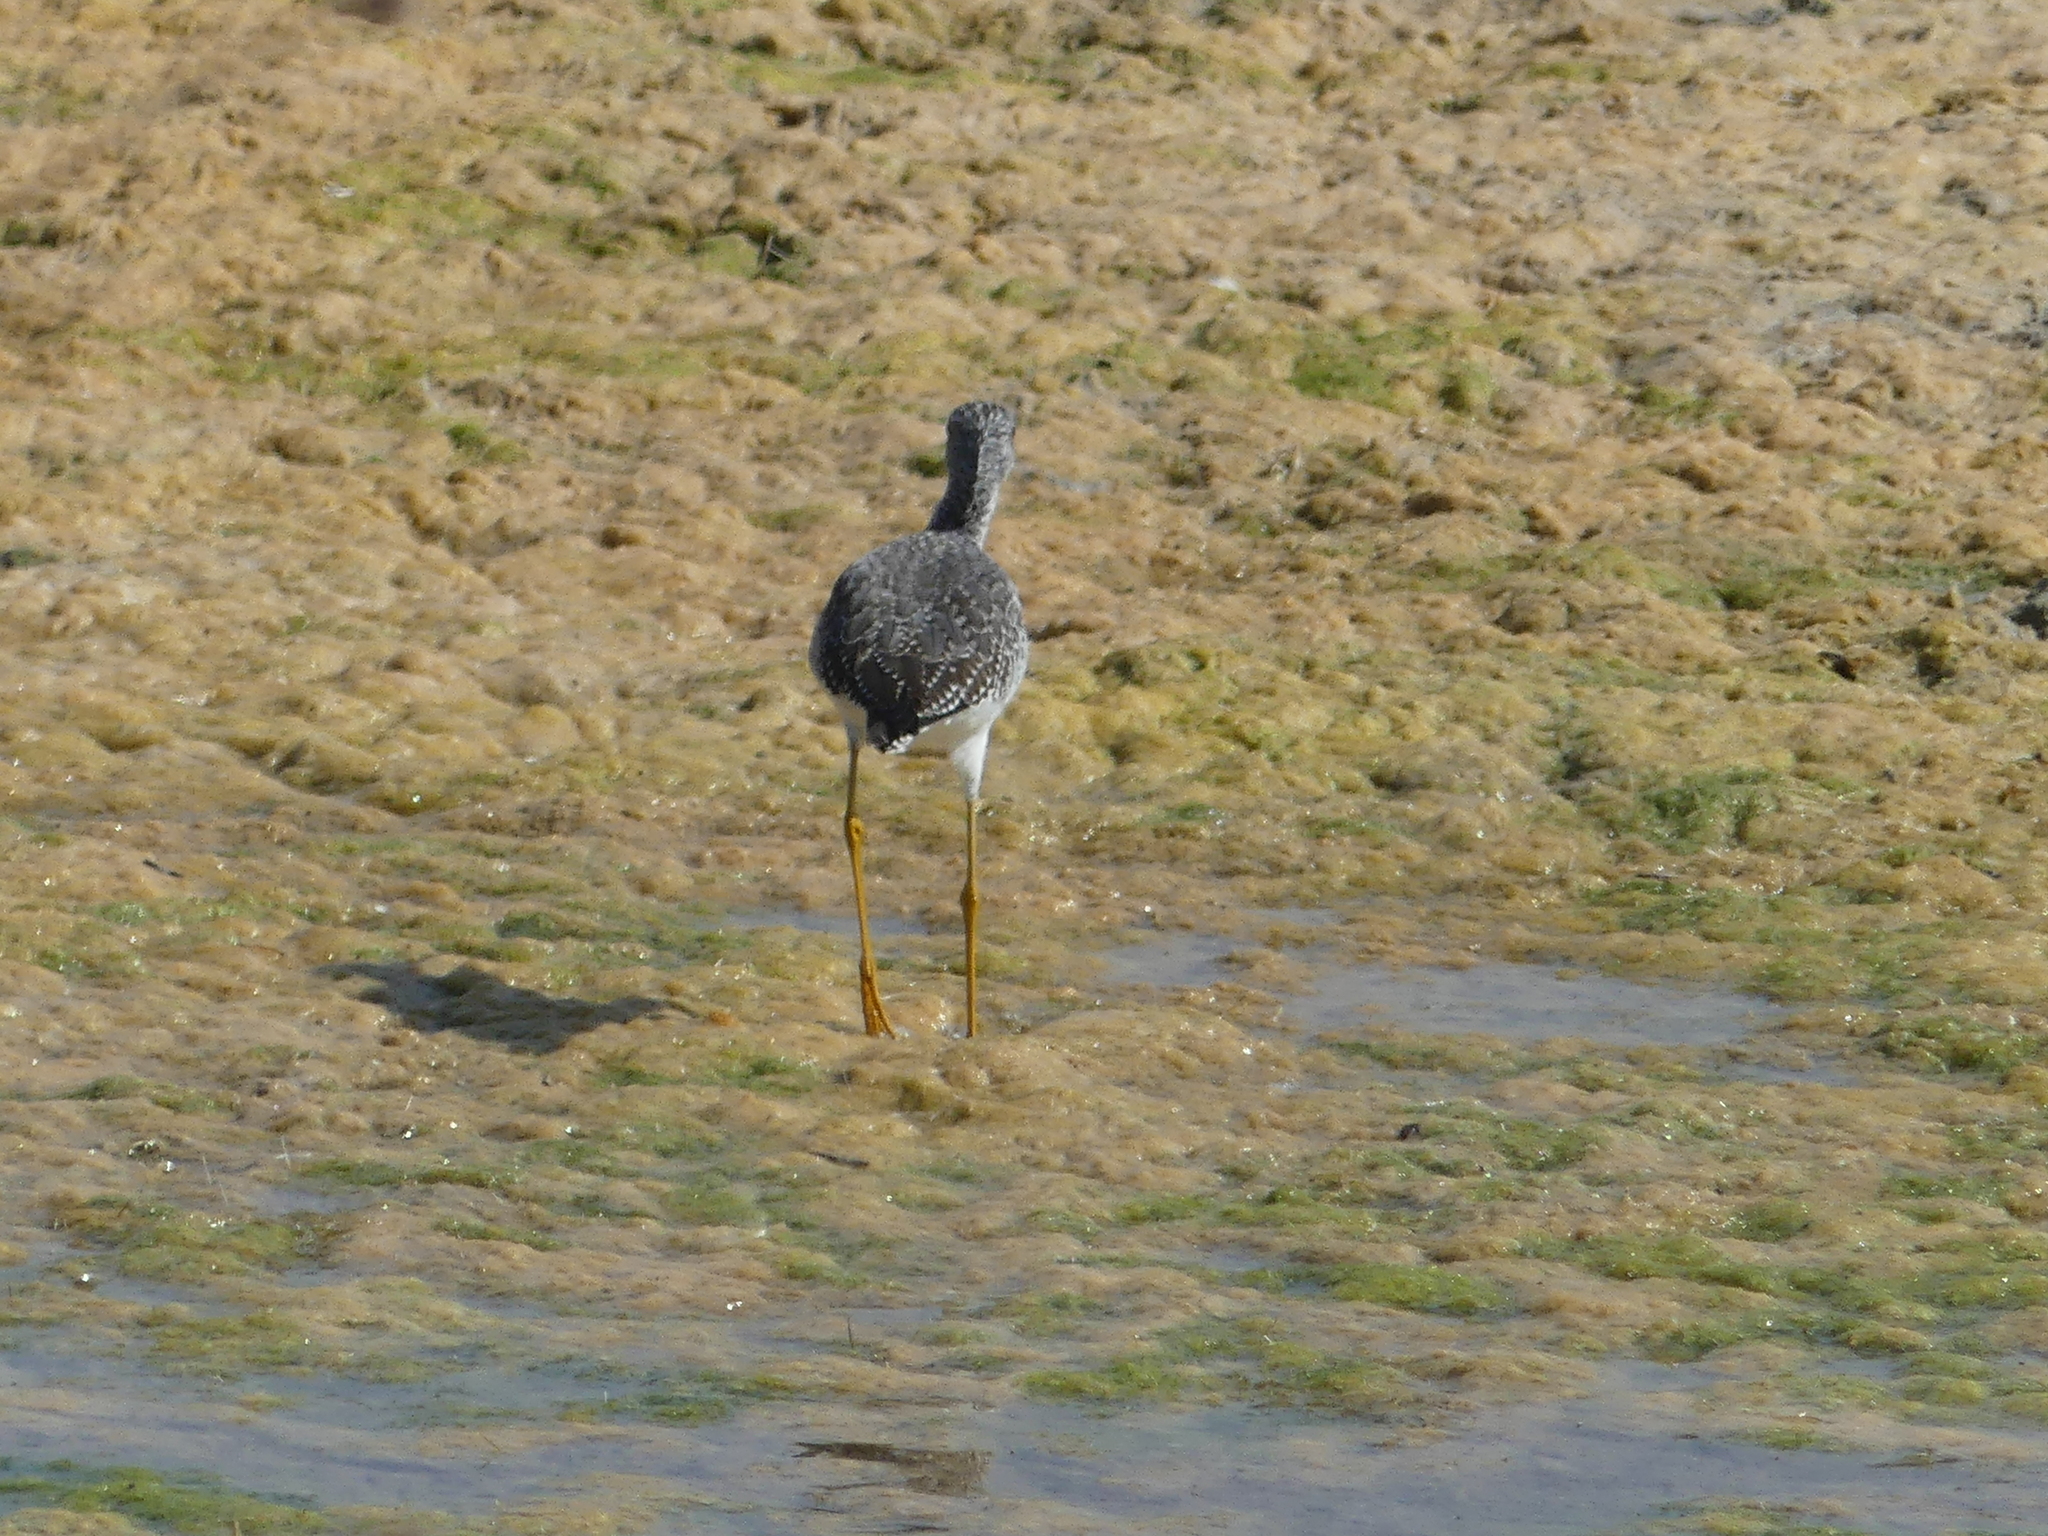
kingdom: Animalia
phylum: Chordata
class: Aves
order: Charadriiformes
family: Scolopacidae
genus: Tringa
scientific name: Tringa melanoleuca
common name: Greater yellowlegs
